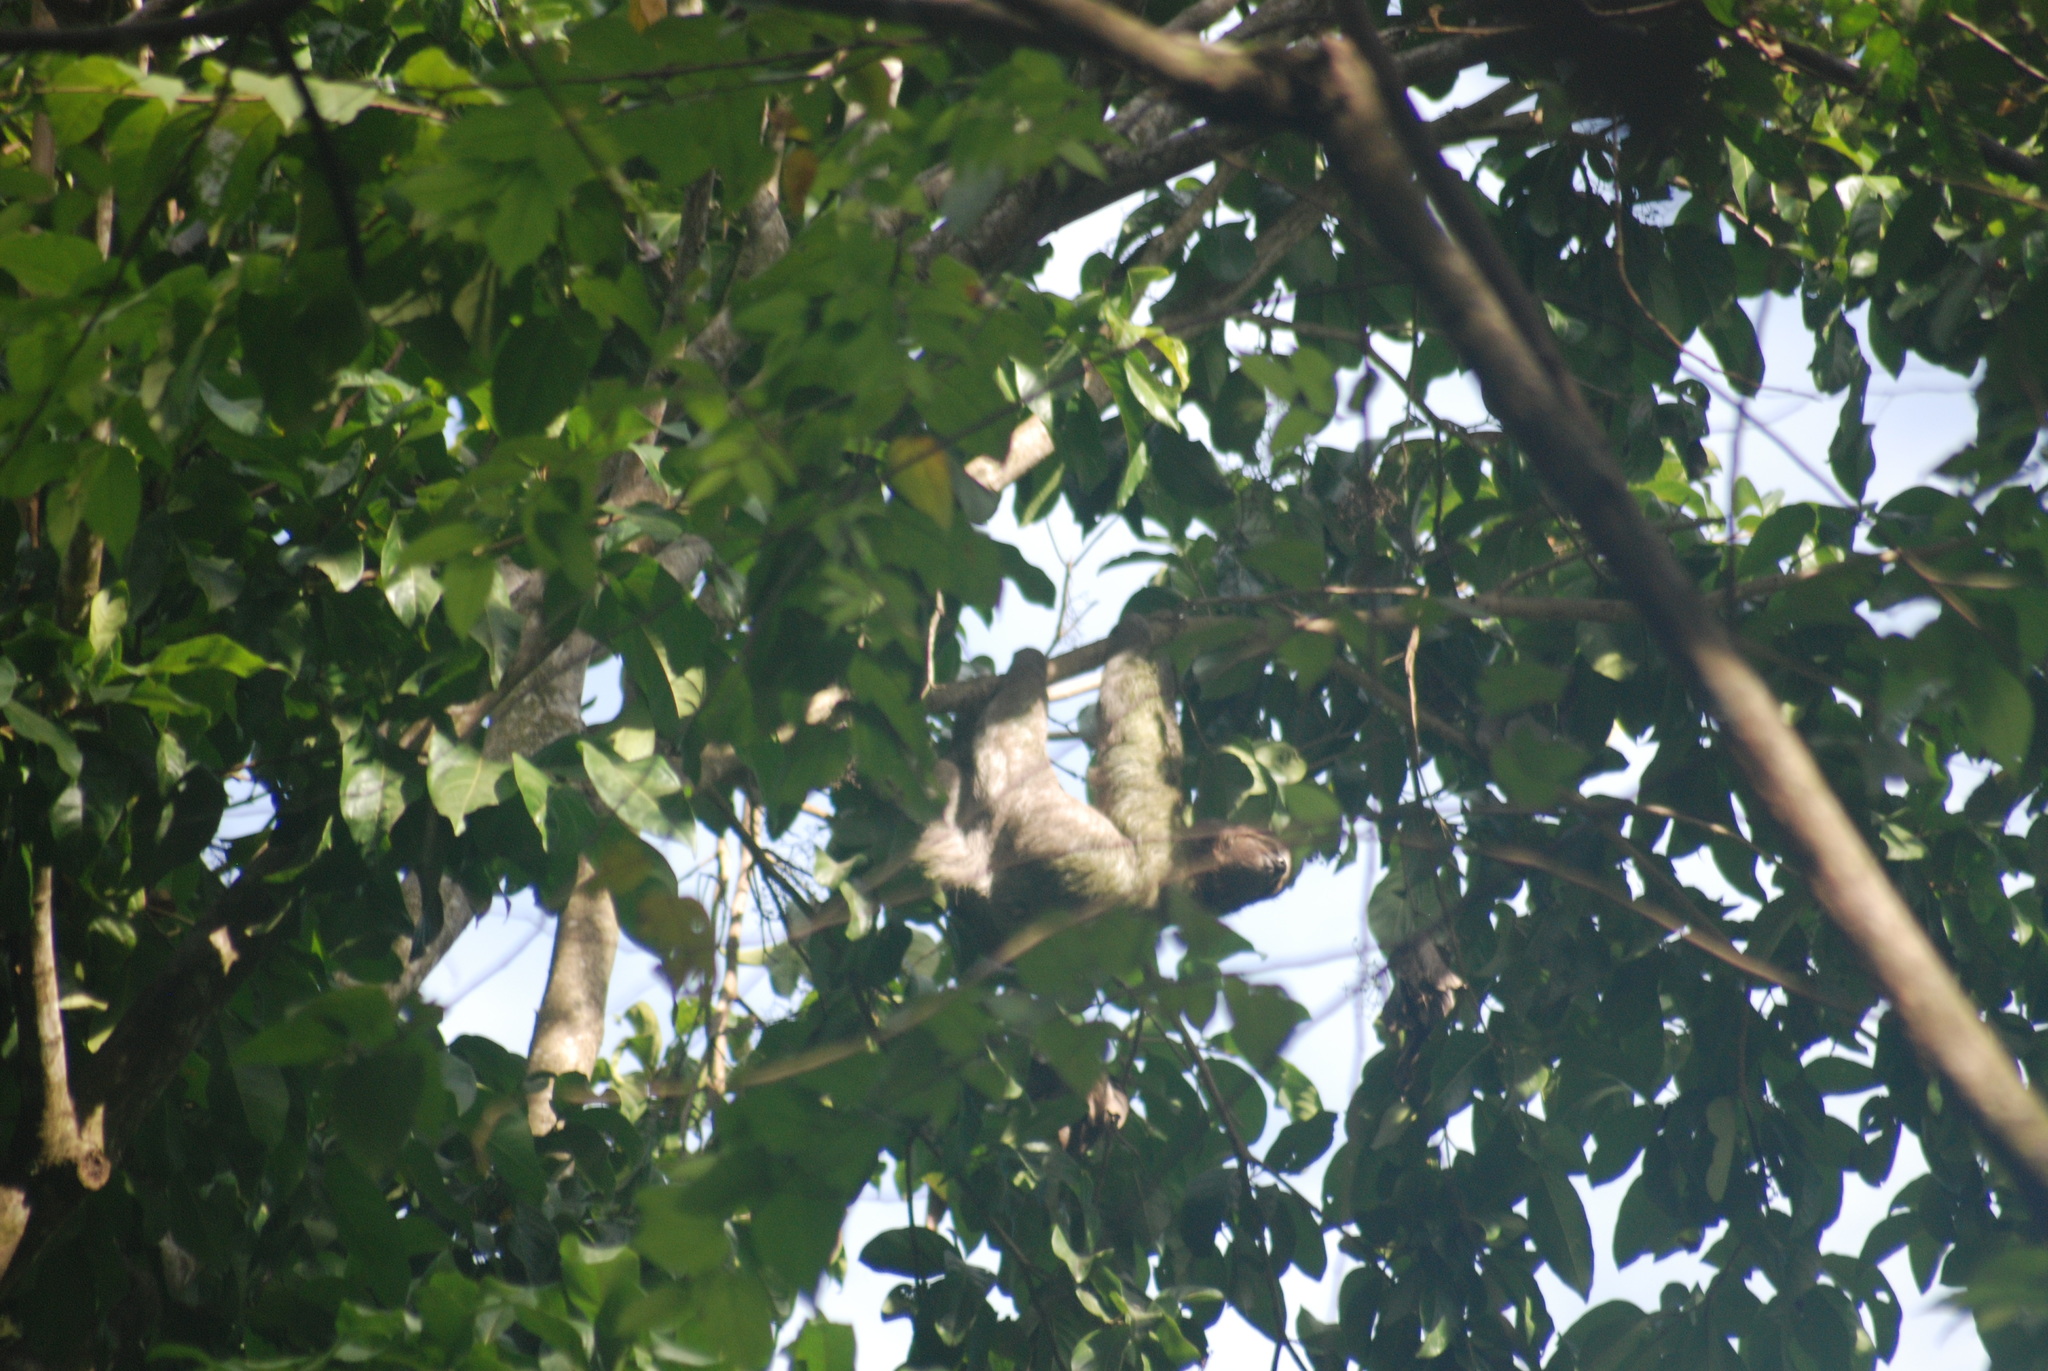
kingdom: Animalia
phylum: Chordata
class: Mammalia
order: Pilosa
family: Bradypodidae
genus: Bradypus
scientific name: Bradypus variegatus
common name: Brown-throated three-toed sloth
